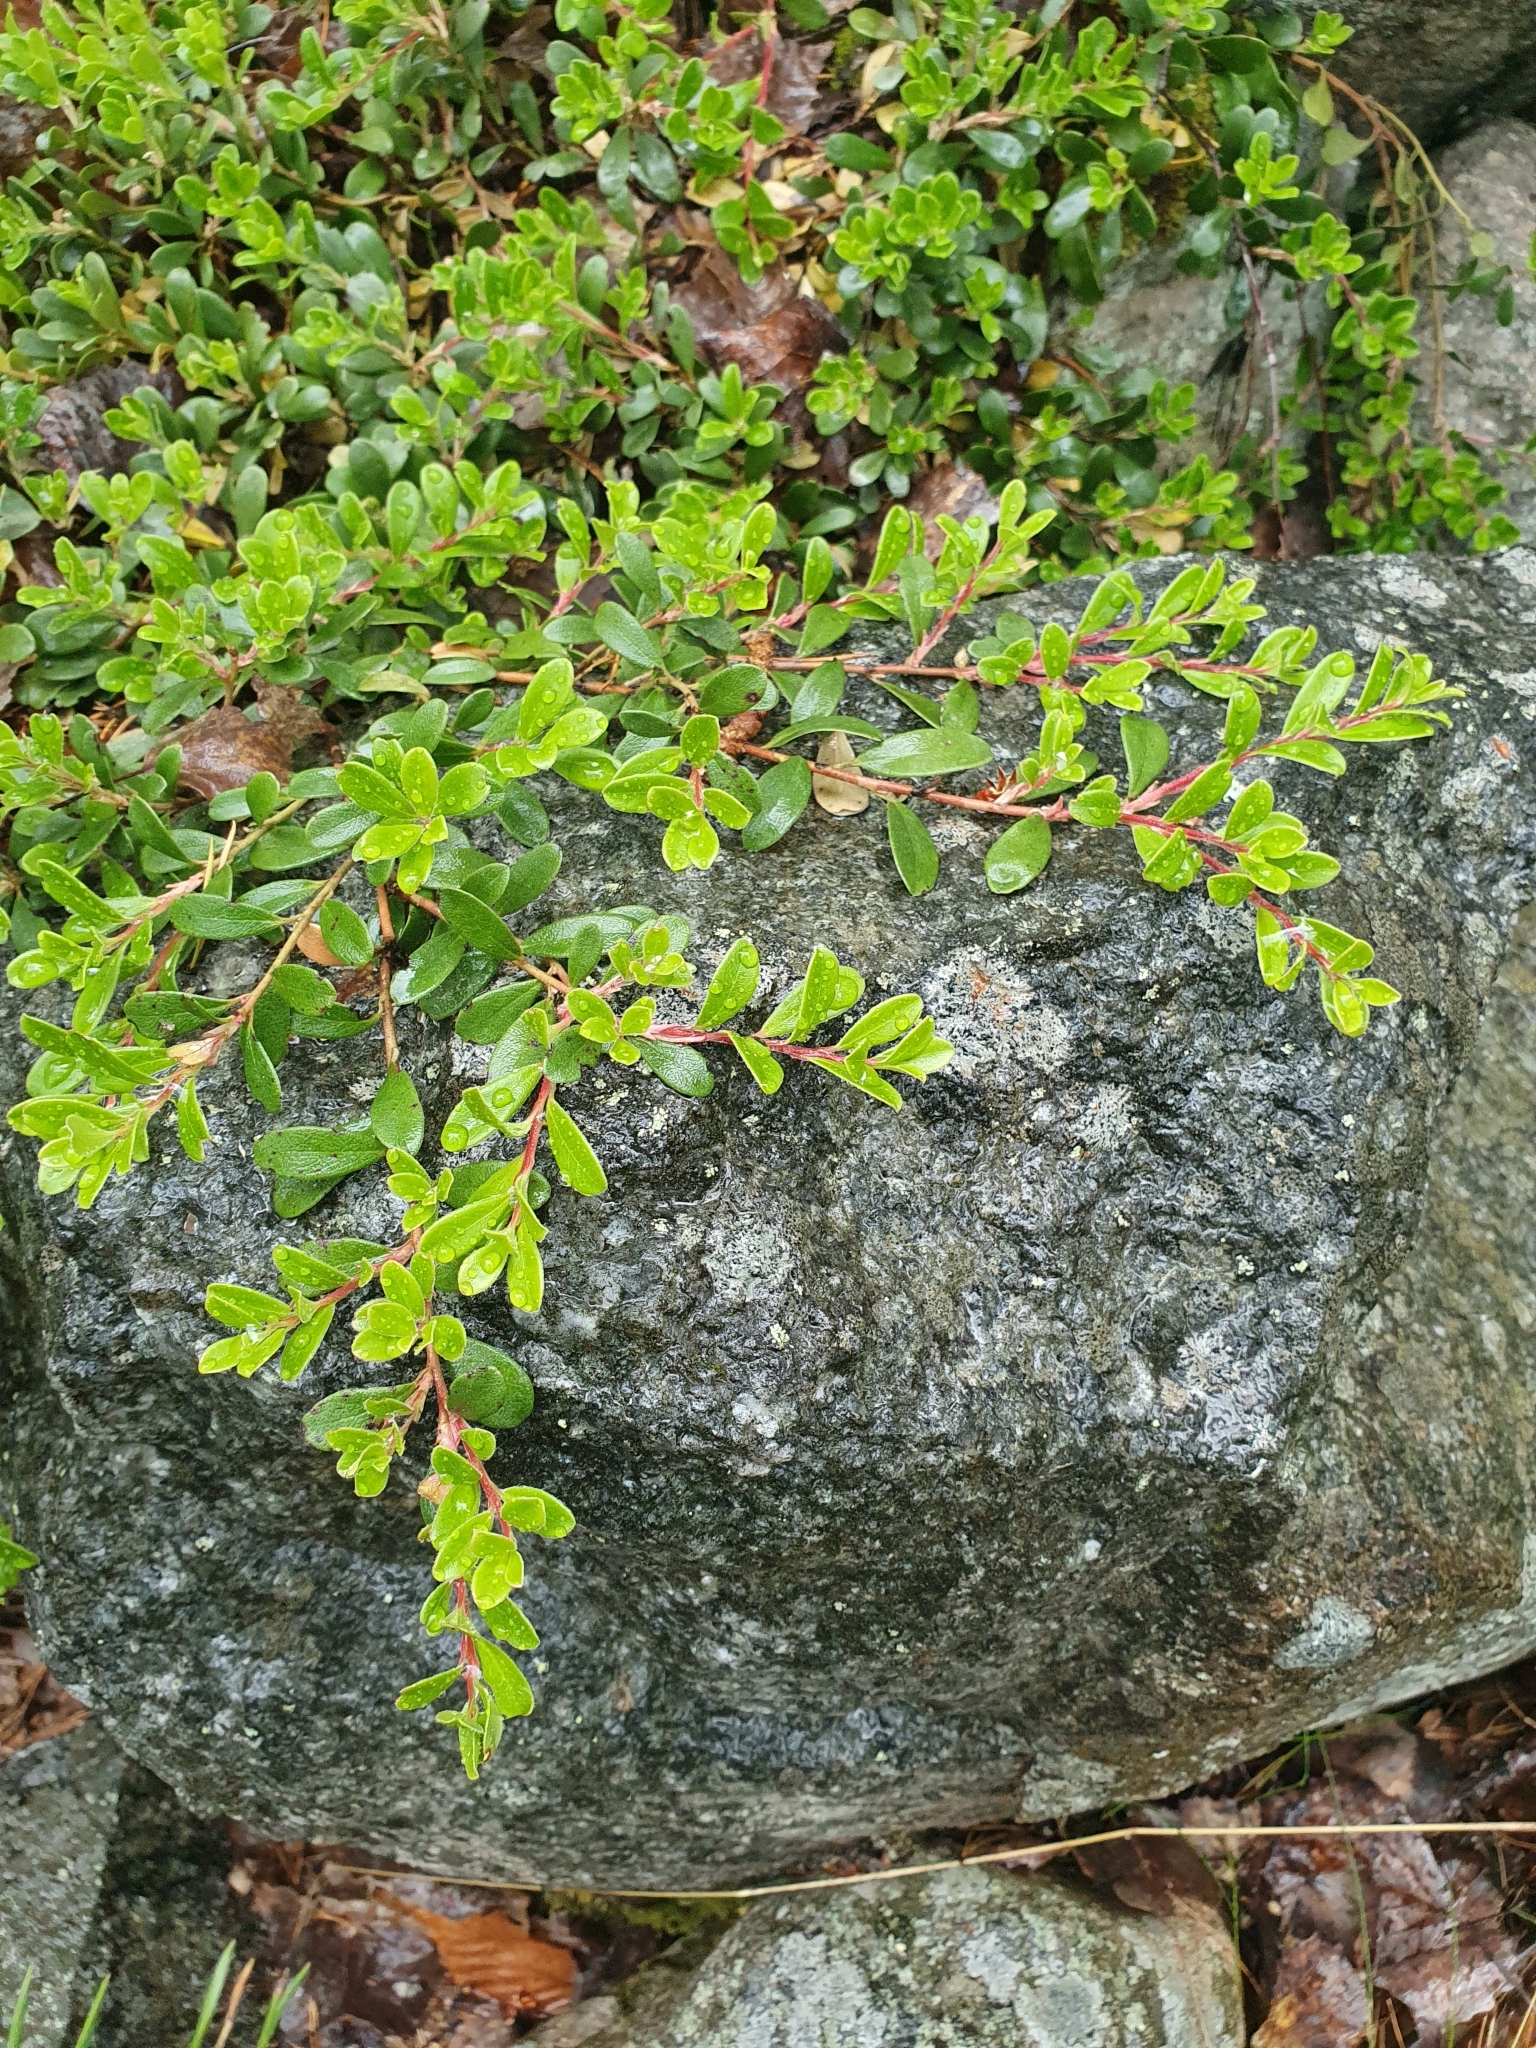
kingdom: Plantae
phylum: Tracheophyta
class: Magnoliopsida
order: Ericales
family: Ericaceae
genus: Arctostaphylos
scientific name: Arctostaphylos uva-ursi
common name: Bearberry
